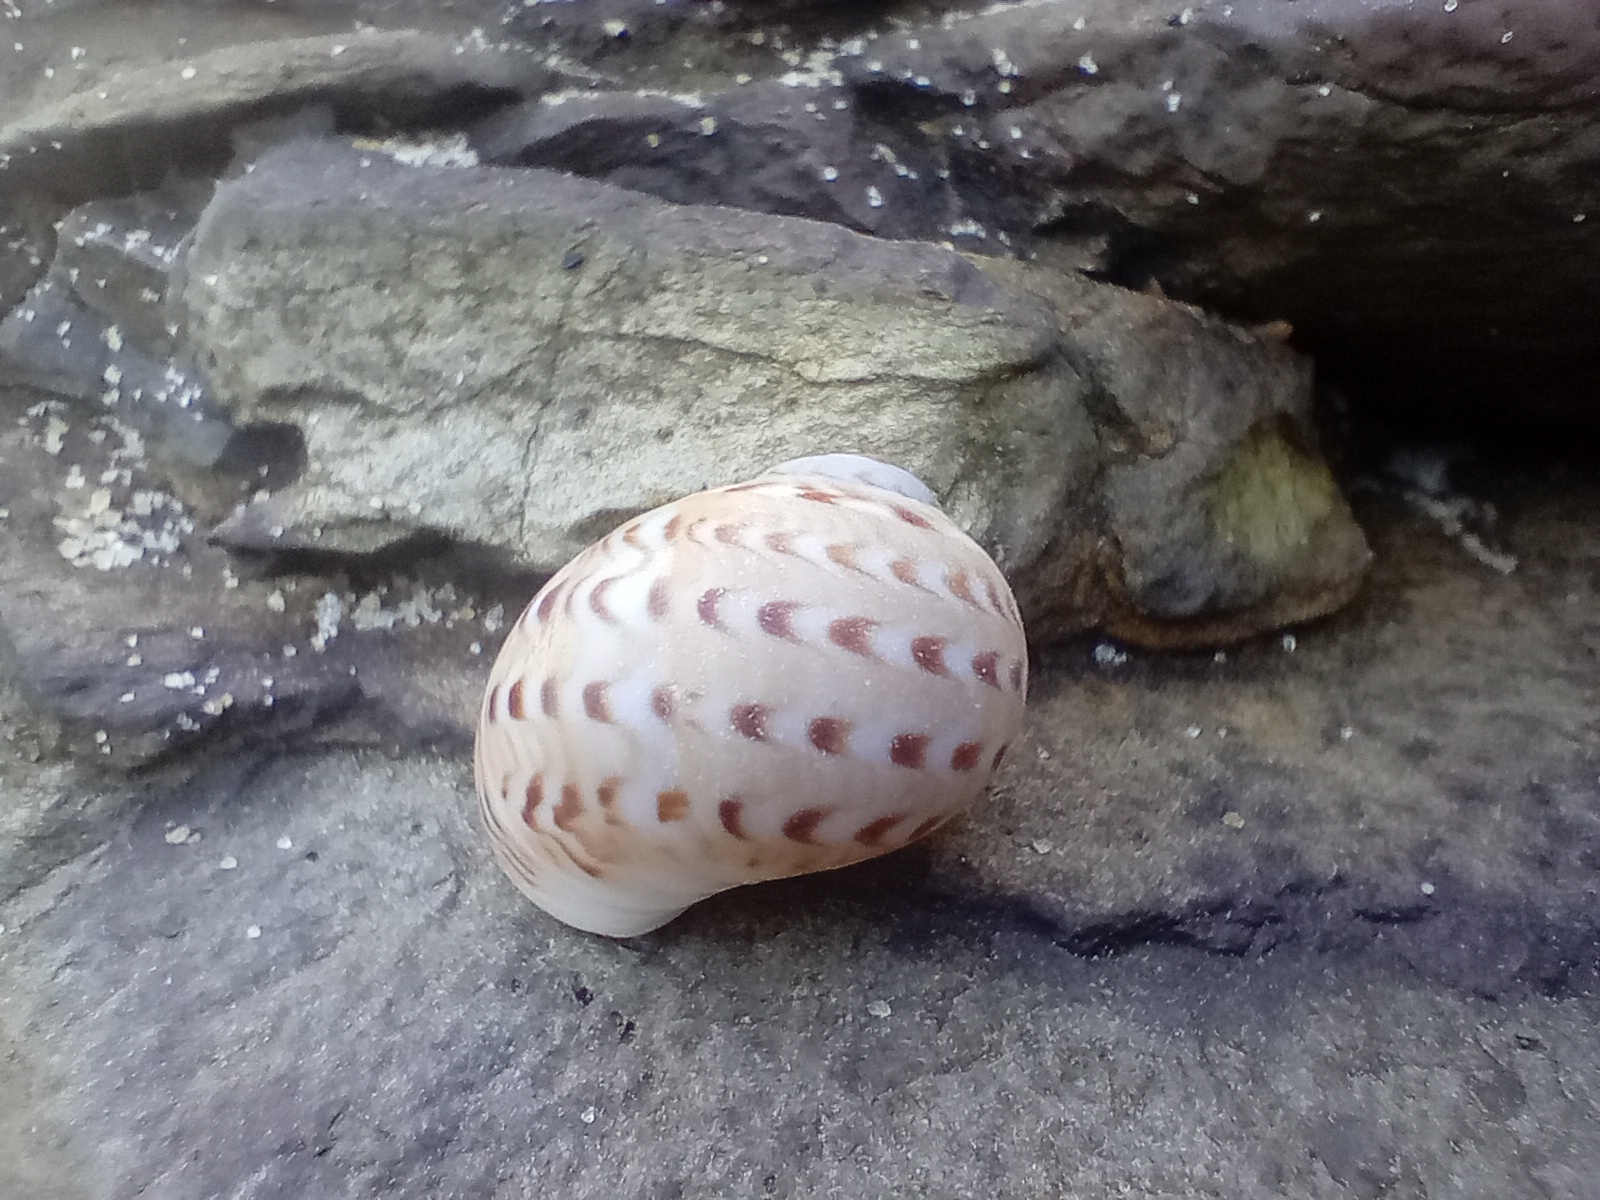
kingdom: Animalia
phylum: Mollusca
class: Gastropoda
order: Littorinimorpha
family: Naticidae
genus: Tanea
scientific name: Tanea zelandica
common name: New zealand moonsnail
